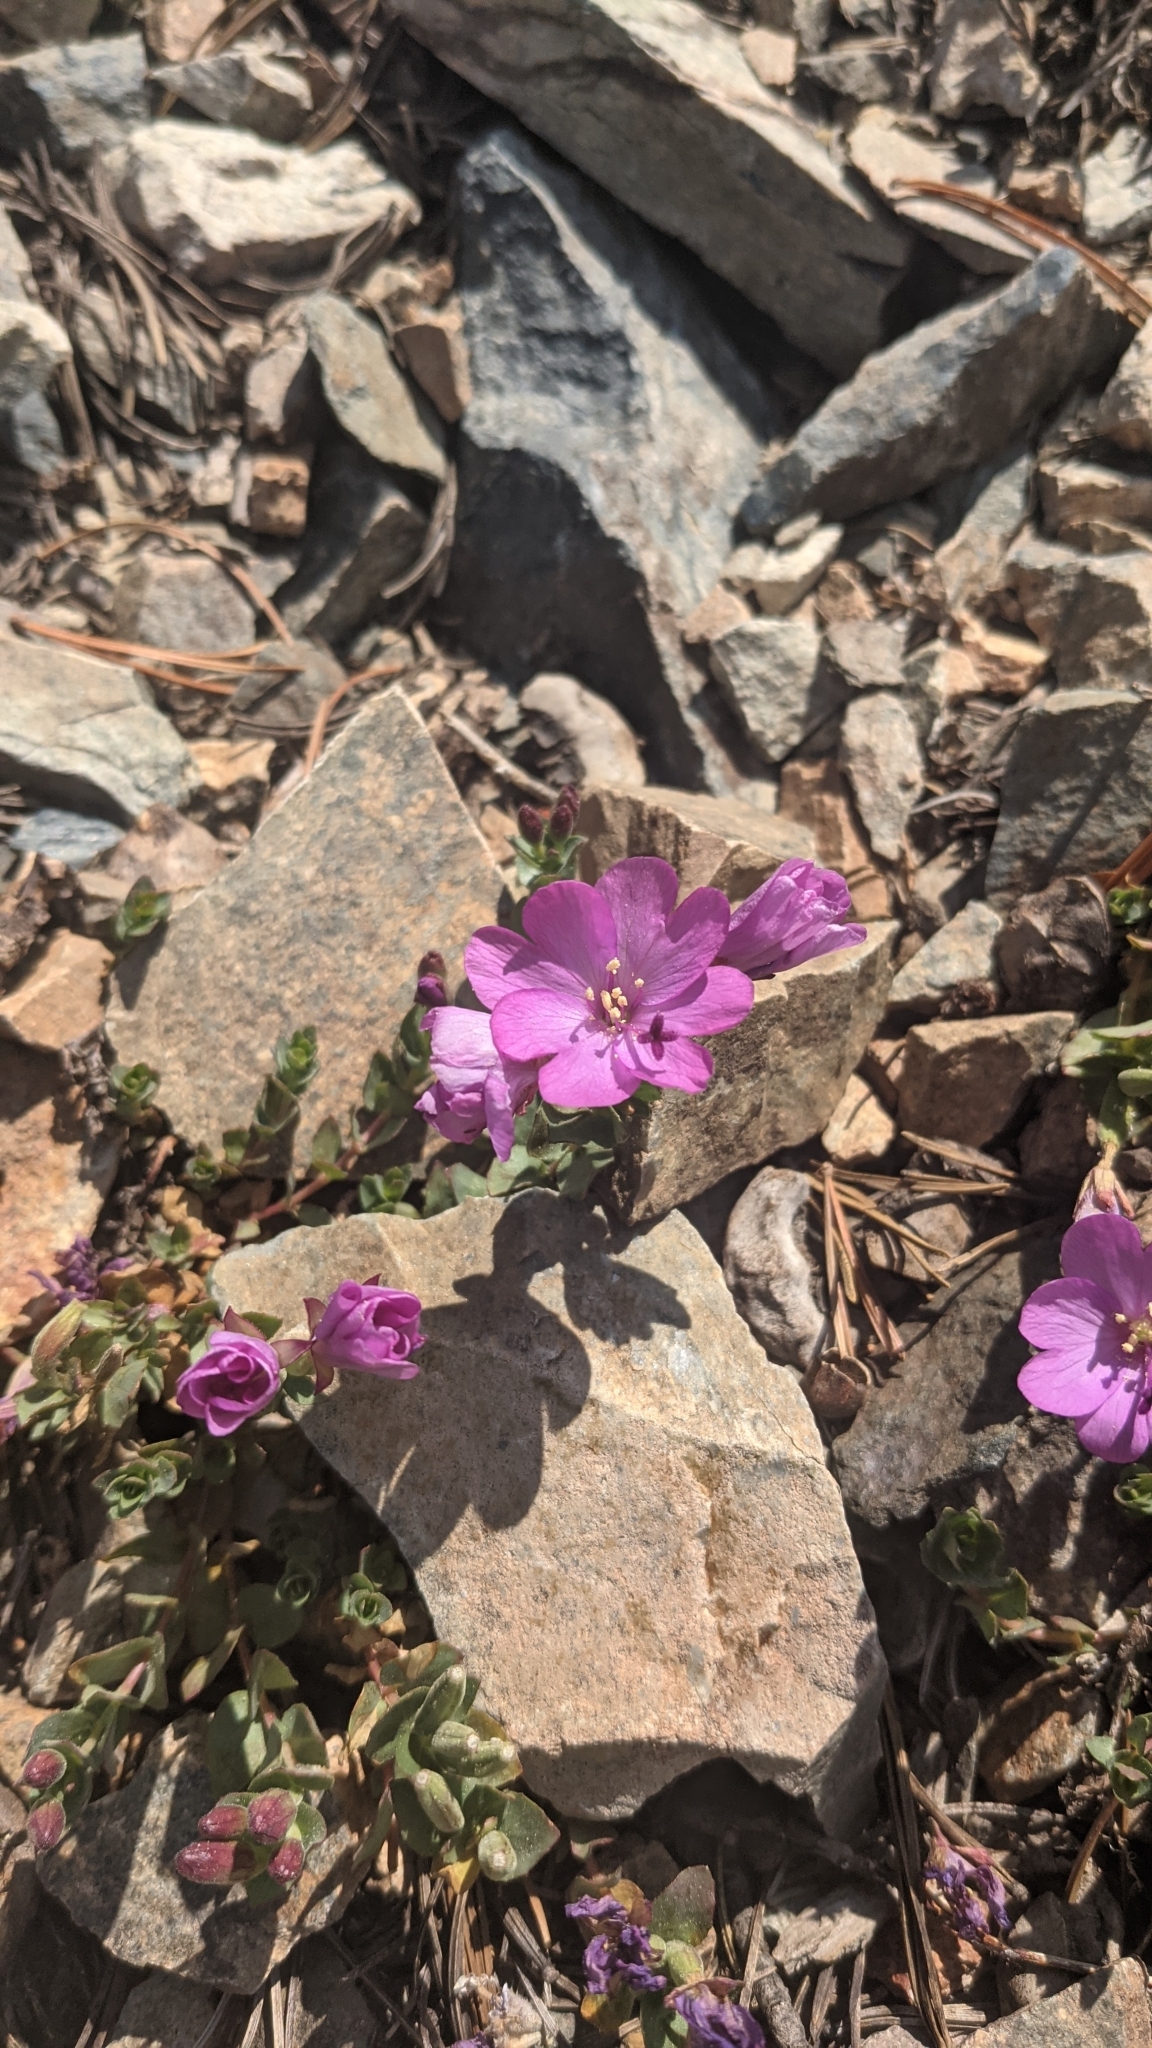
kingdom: Plantae
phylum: Tracheophyta
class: Magnoliopsida
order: Myrtales
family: Onagraceae
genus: Epilobium
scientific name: Epilobium obcordatum
